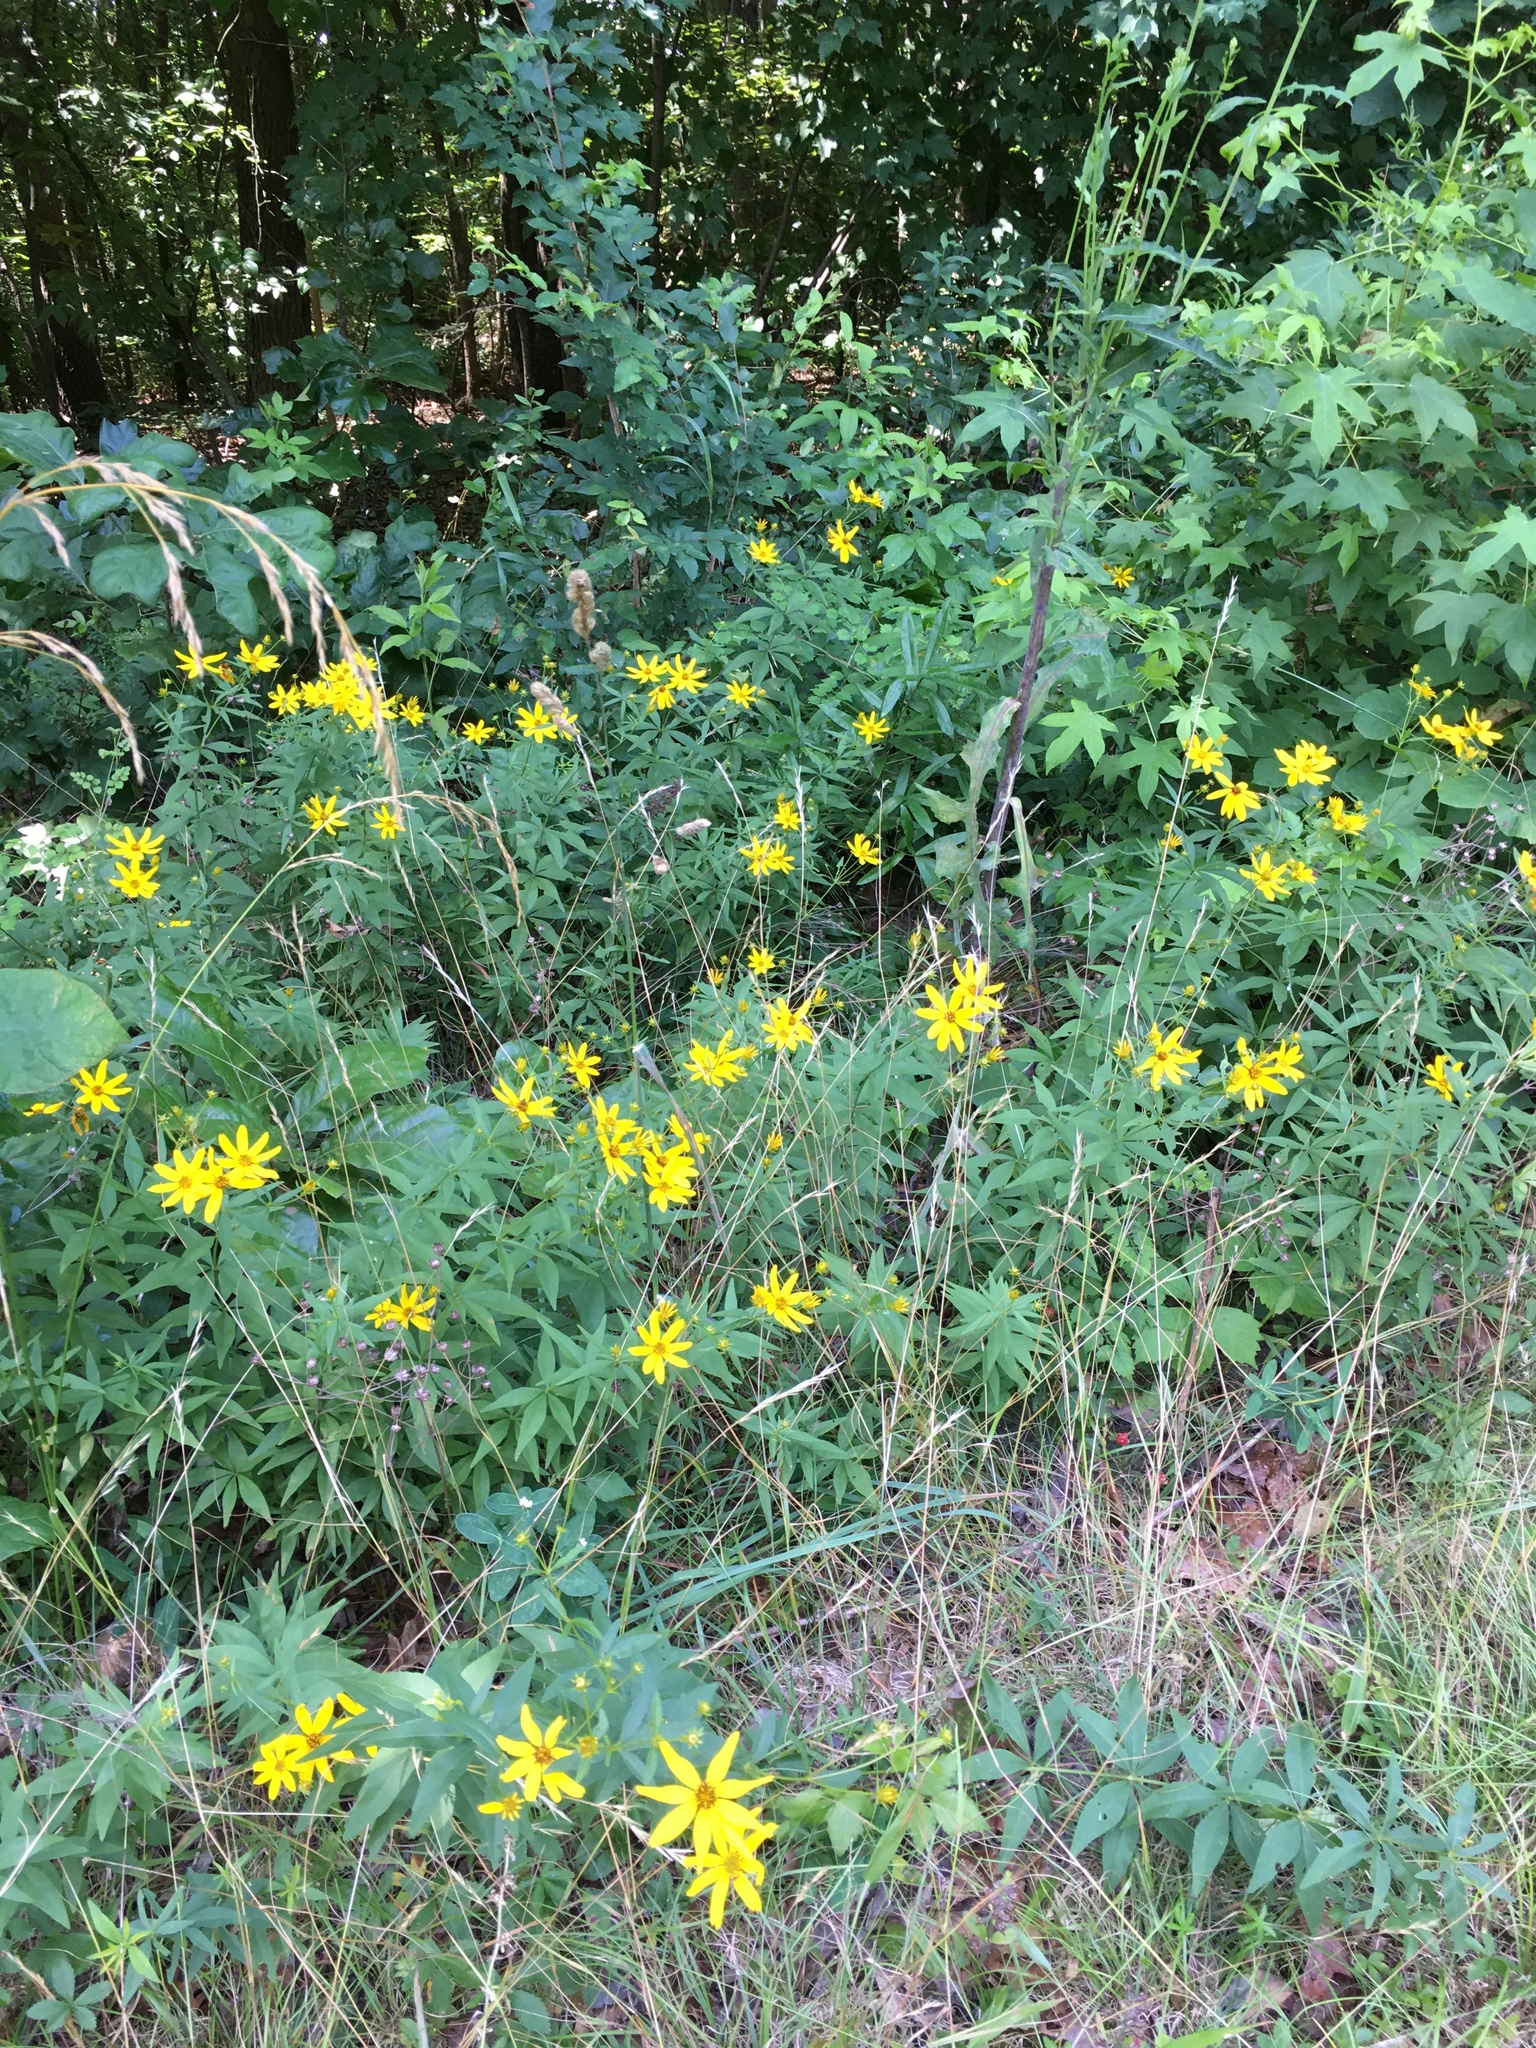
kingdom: Plantae
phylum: Tracheophyta
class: Magnoliopsida
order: Asterales
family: Asteraceae
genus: Coreopsis
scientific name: Coreopsis major
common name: Forest tickseed
